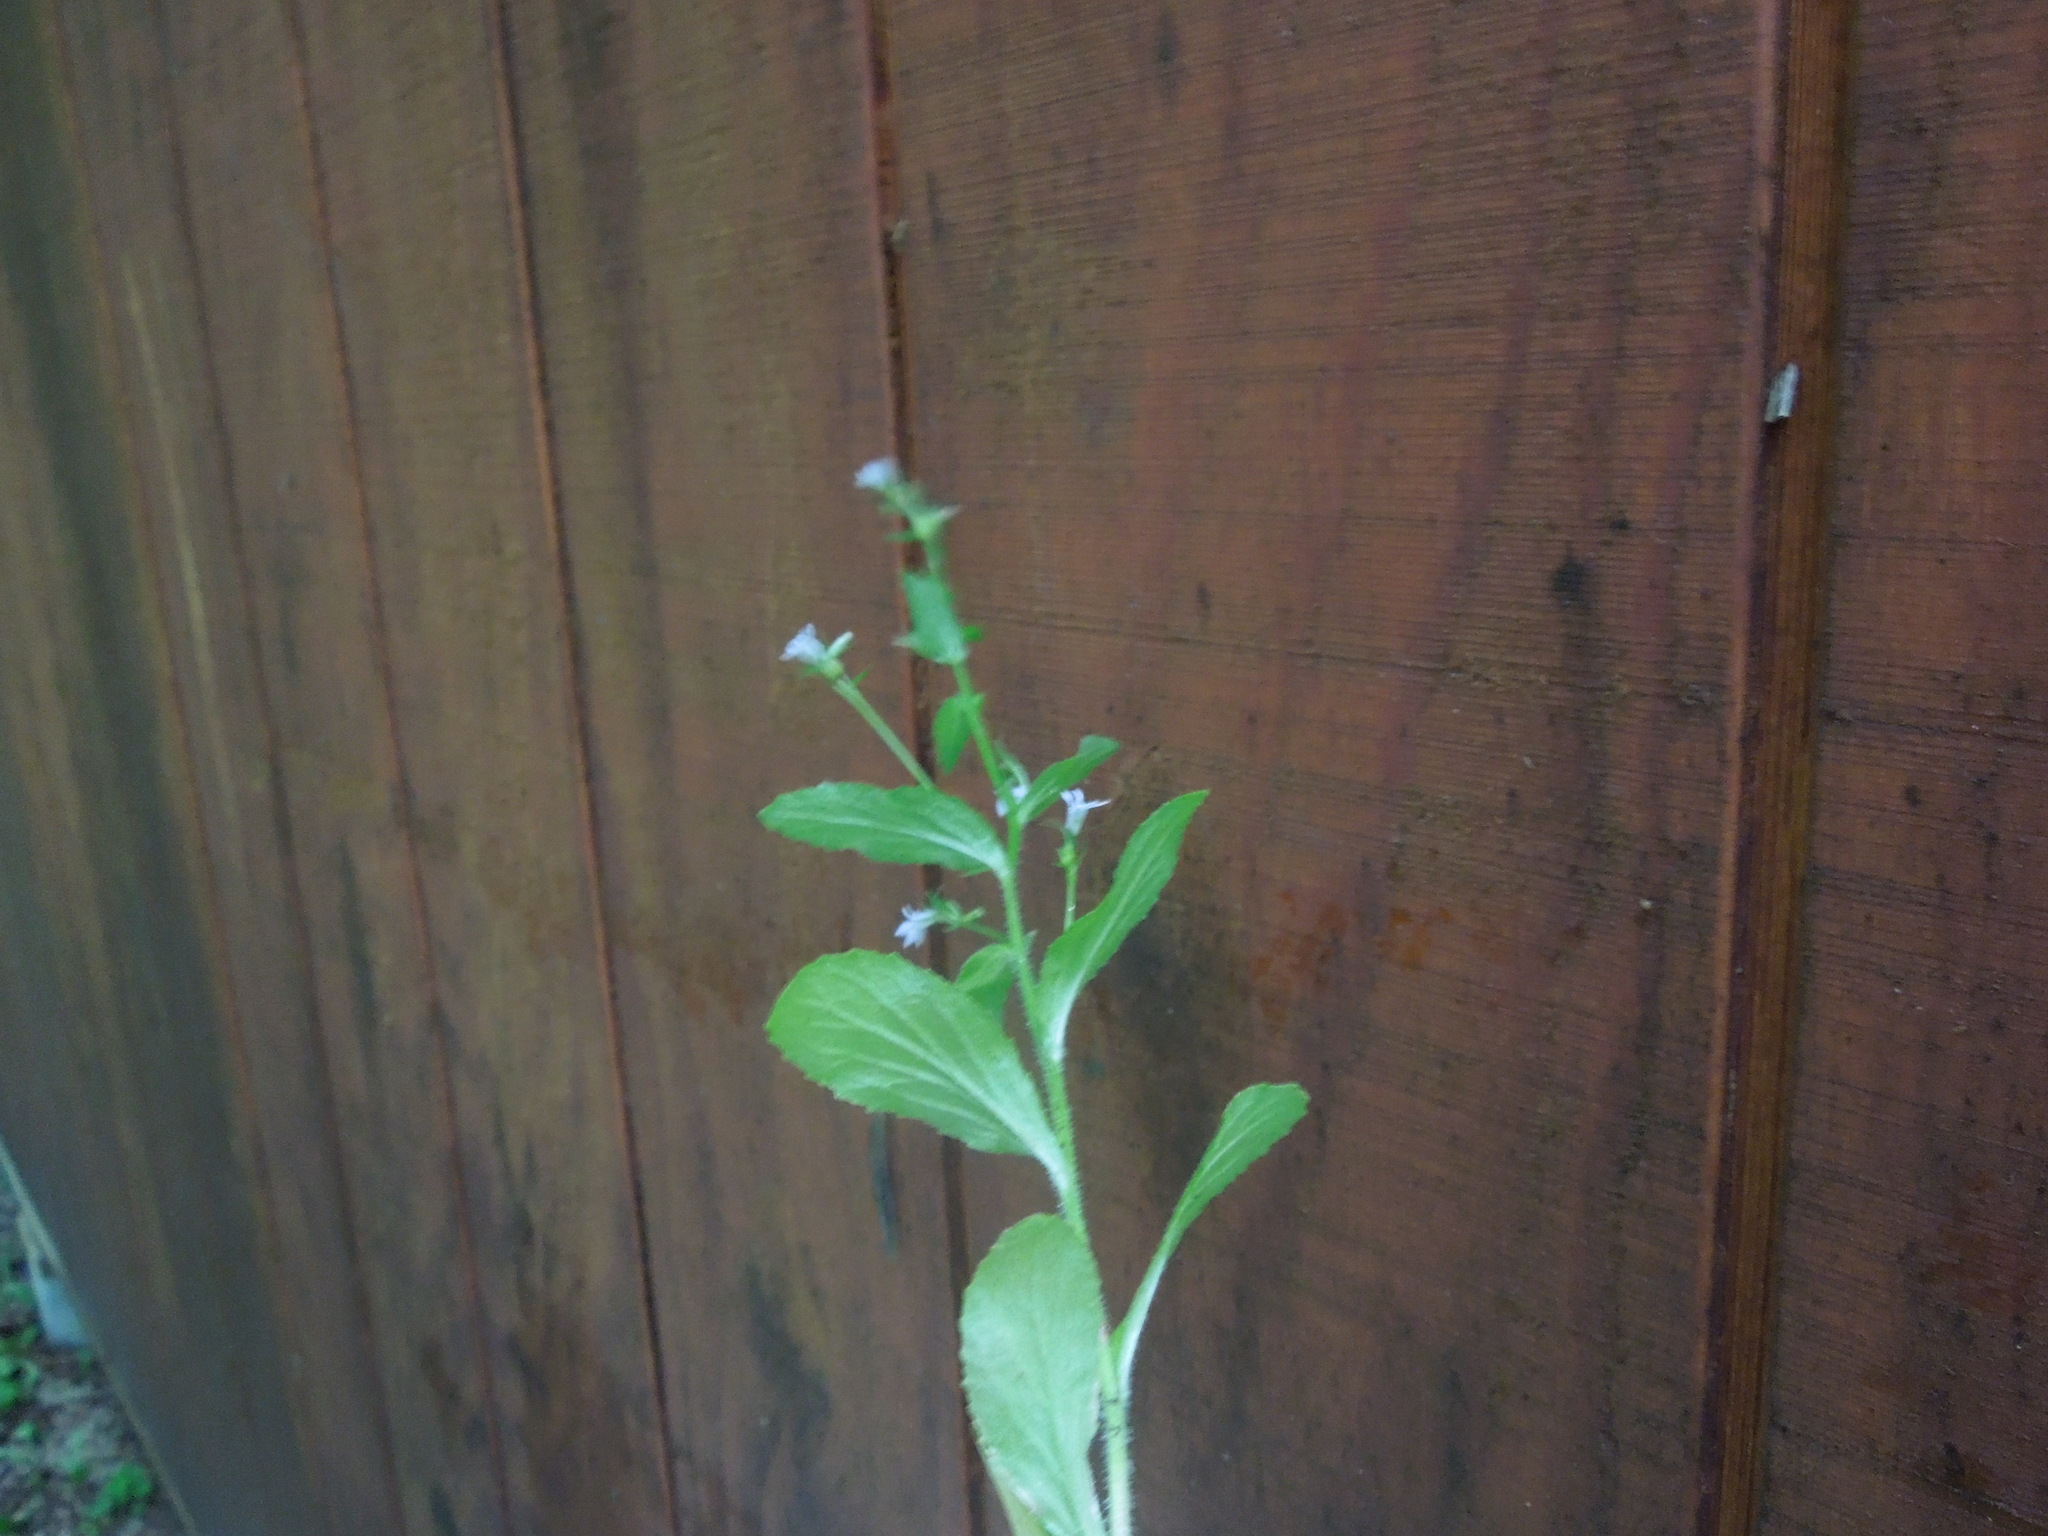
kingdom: Plantae
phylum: Tracheophyta
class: Magnoliopsida
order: Asterales
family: Campanulaceae
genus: Lobelia
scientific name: Lobelia inflata
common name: Indian tobacco
